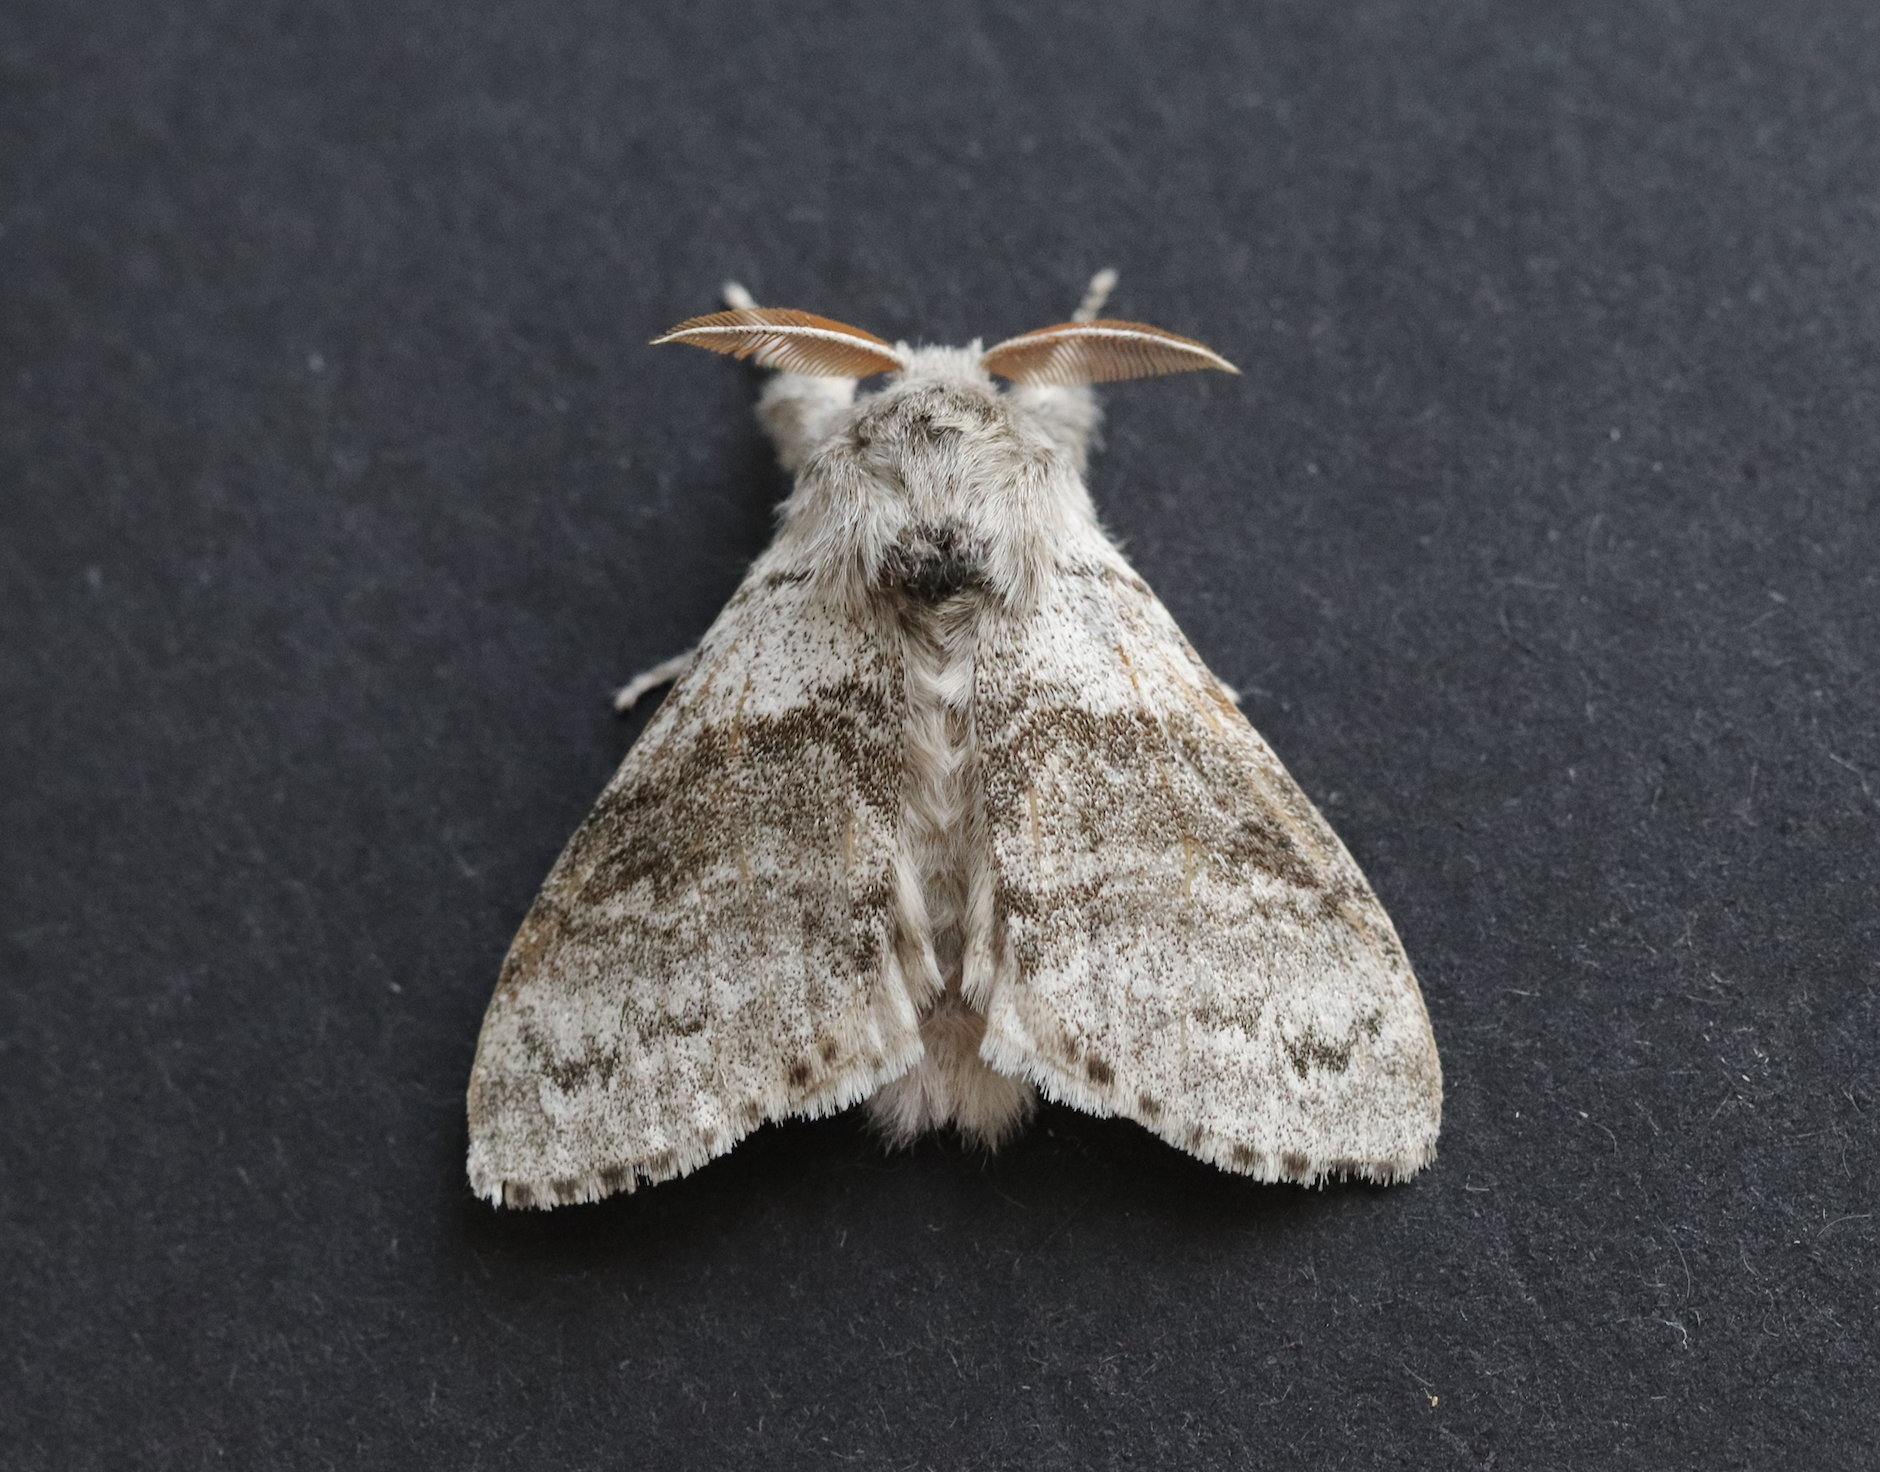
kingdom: Animalia
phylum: Arthropoda
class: Insecta
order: Lepidoptera
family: Erebidae
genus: Calliteara
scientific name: Calliteara pudibunda
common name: Pale tussock
